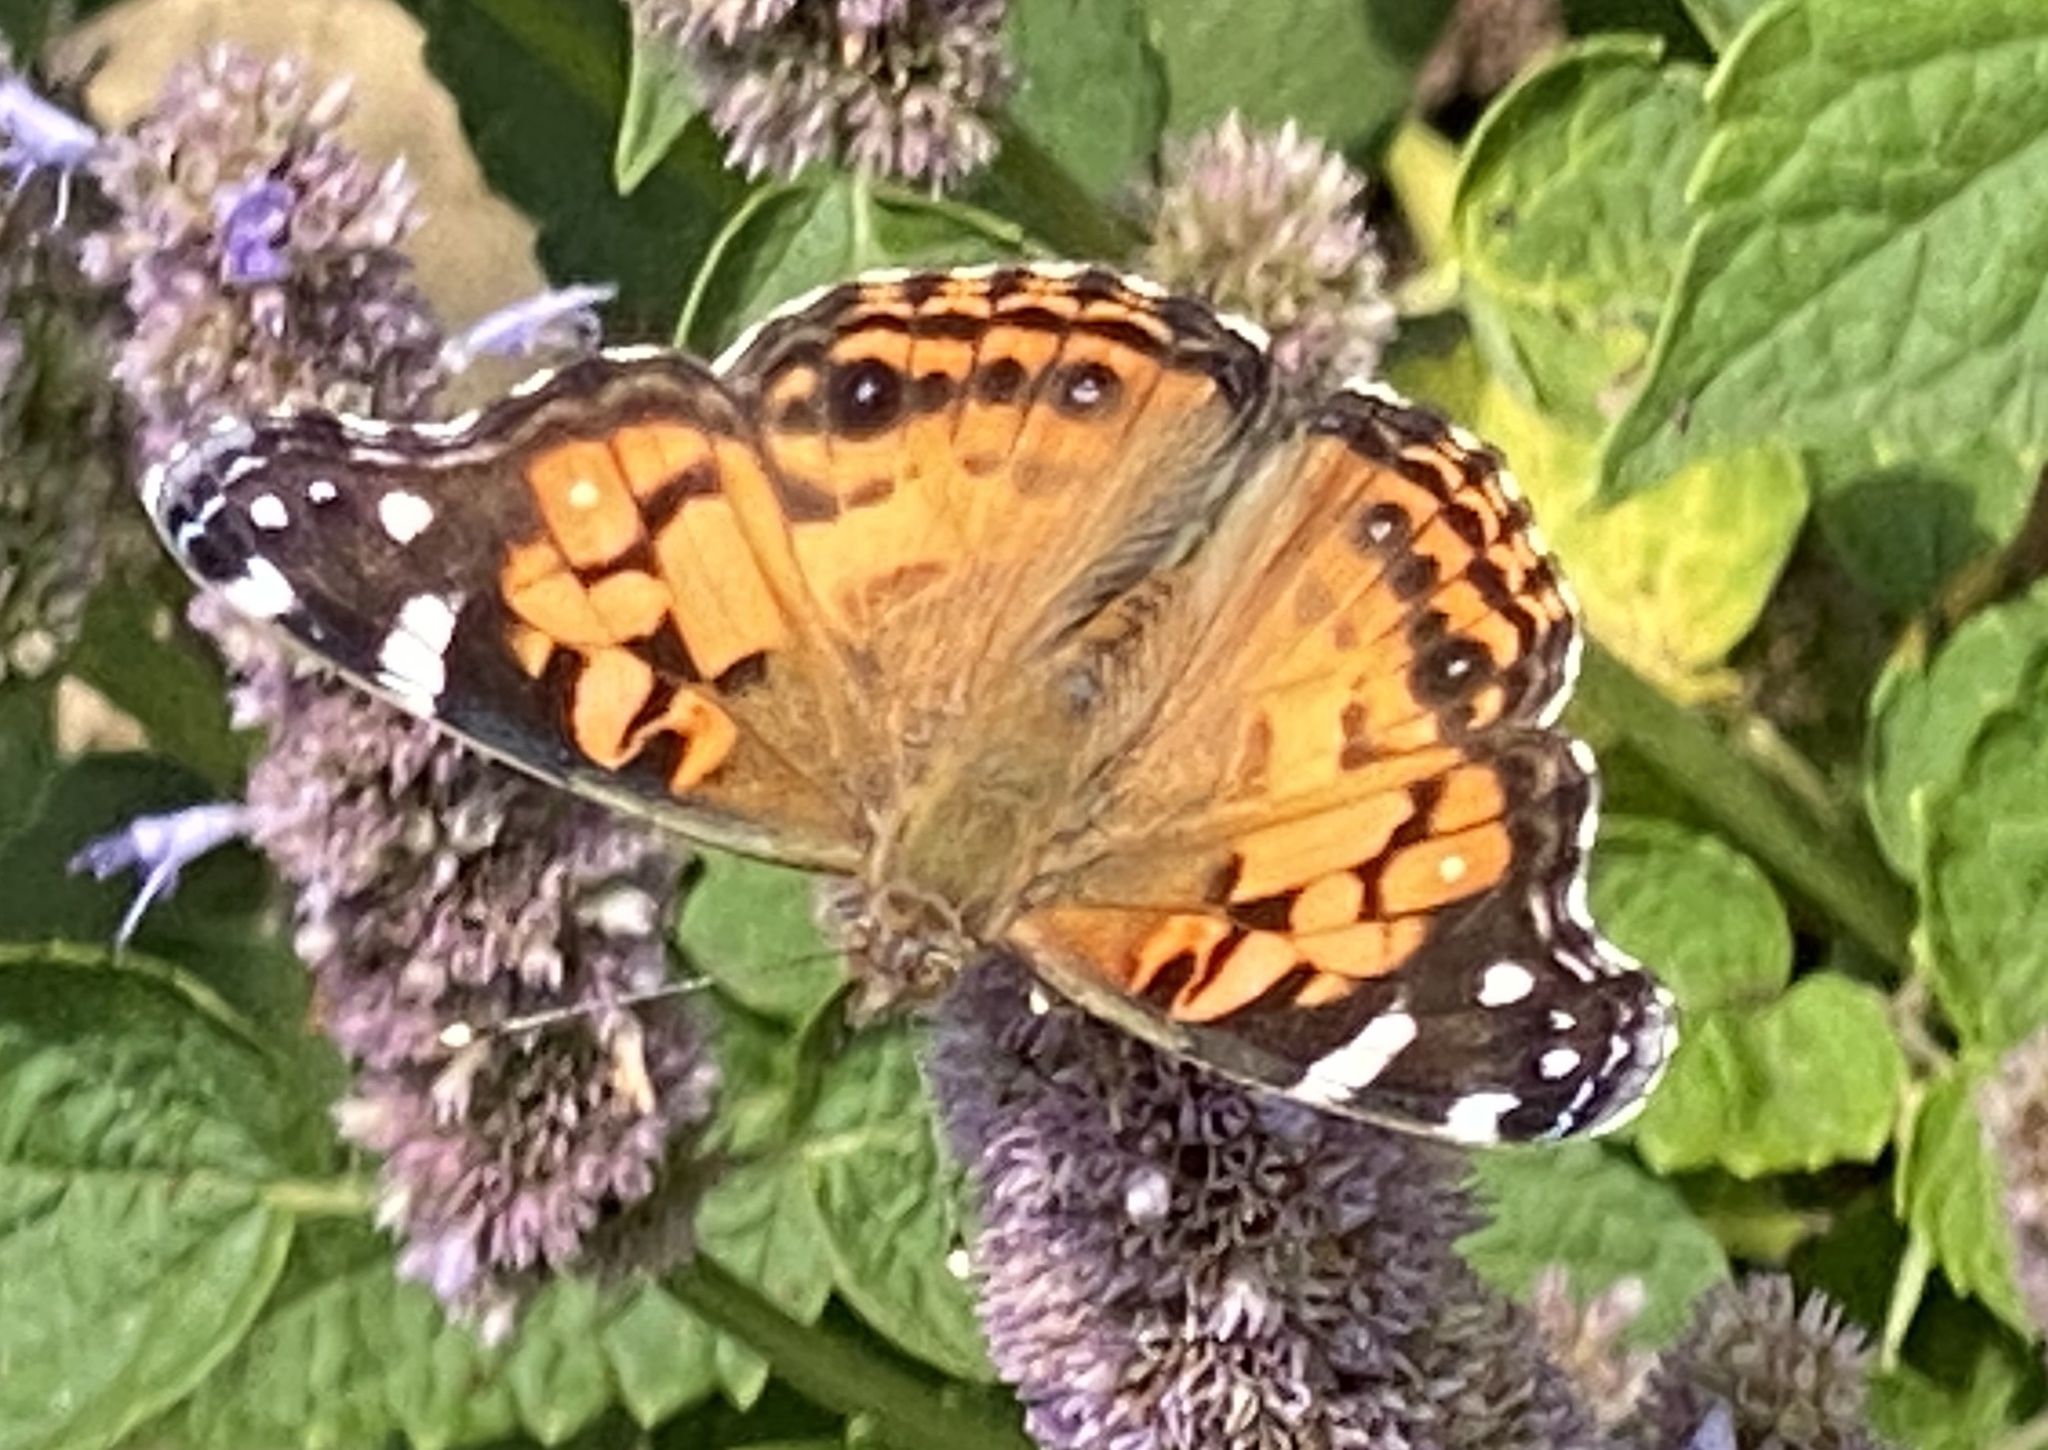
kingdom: Animalia
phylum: Arthropoda
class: Insecta
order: Lepidoptera
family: Nymphalidae
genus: Vanessa
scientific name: Vanessa virginiensis
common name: American lady
